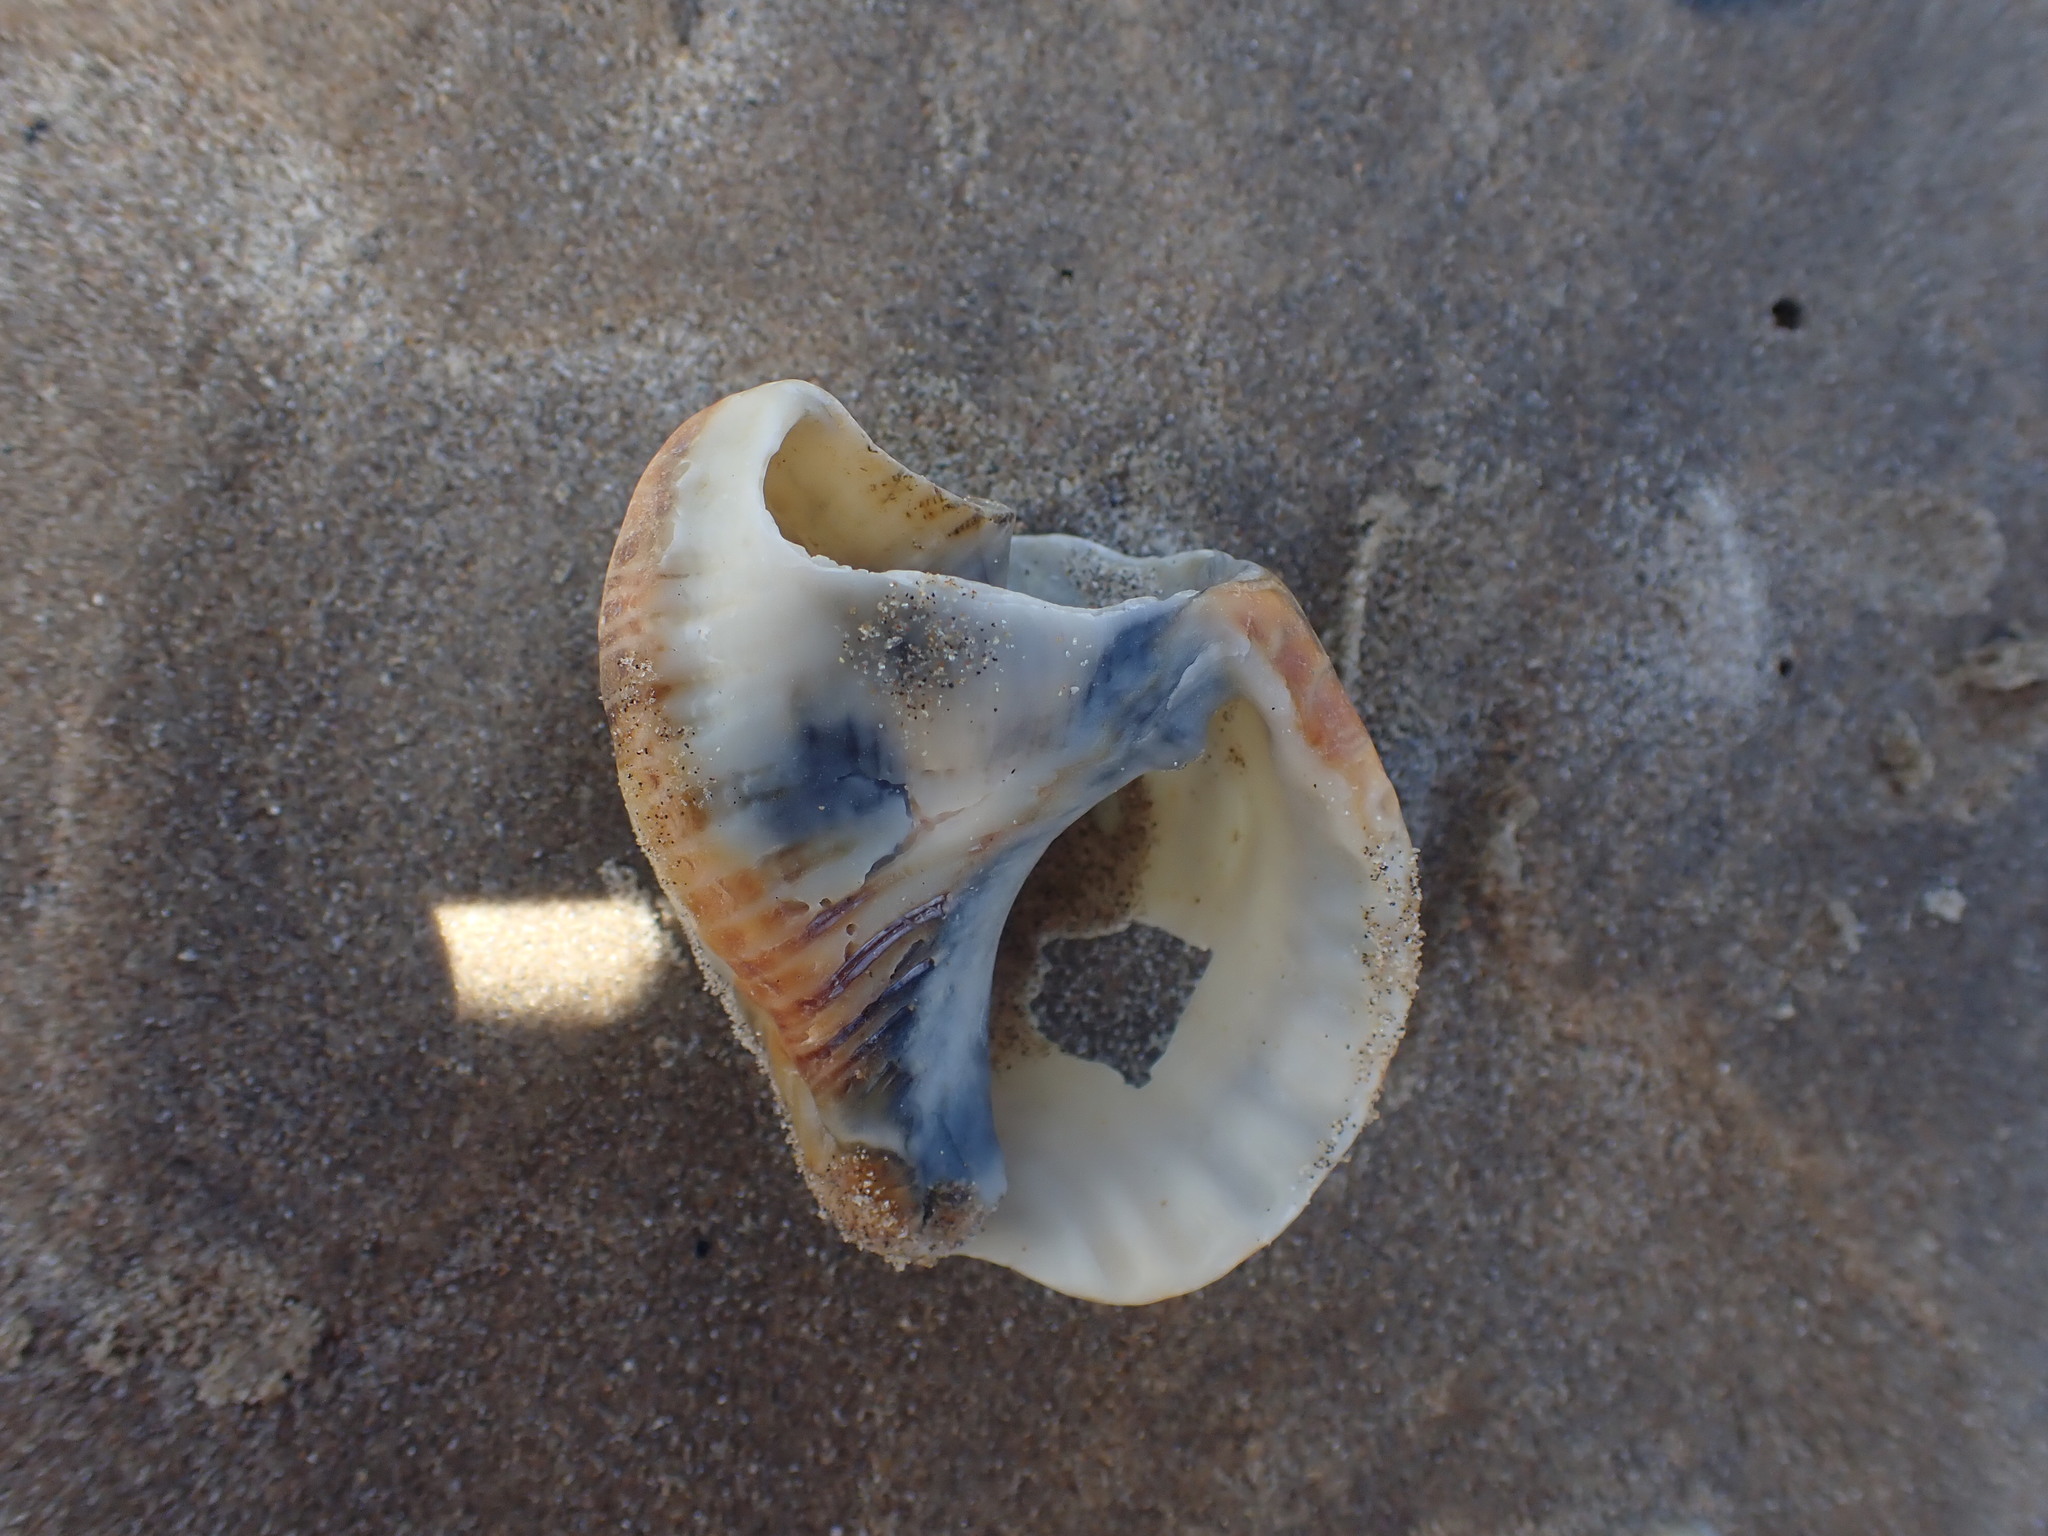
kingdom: Animalia
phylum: Mollusca
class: Gastropoda
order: Littorinimorpha
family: Ranellidae
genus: Ranella
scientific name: Ranella australasia
